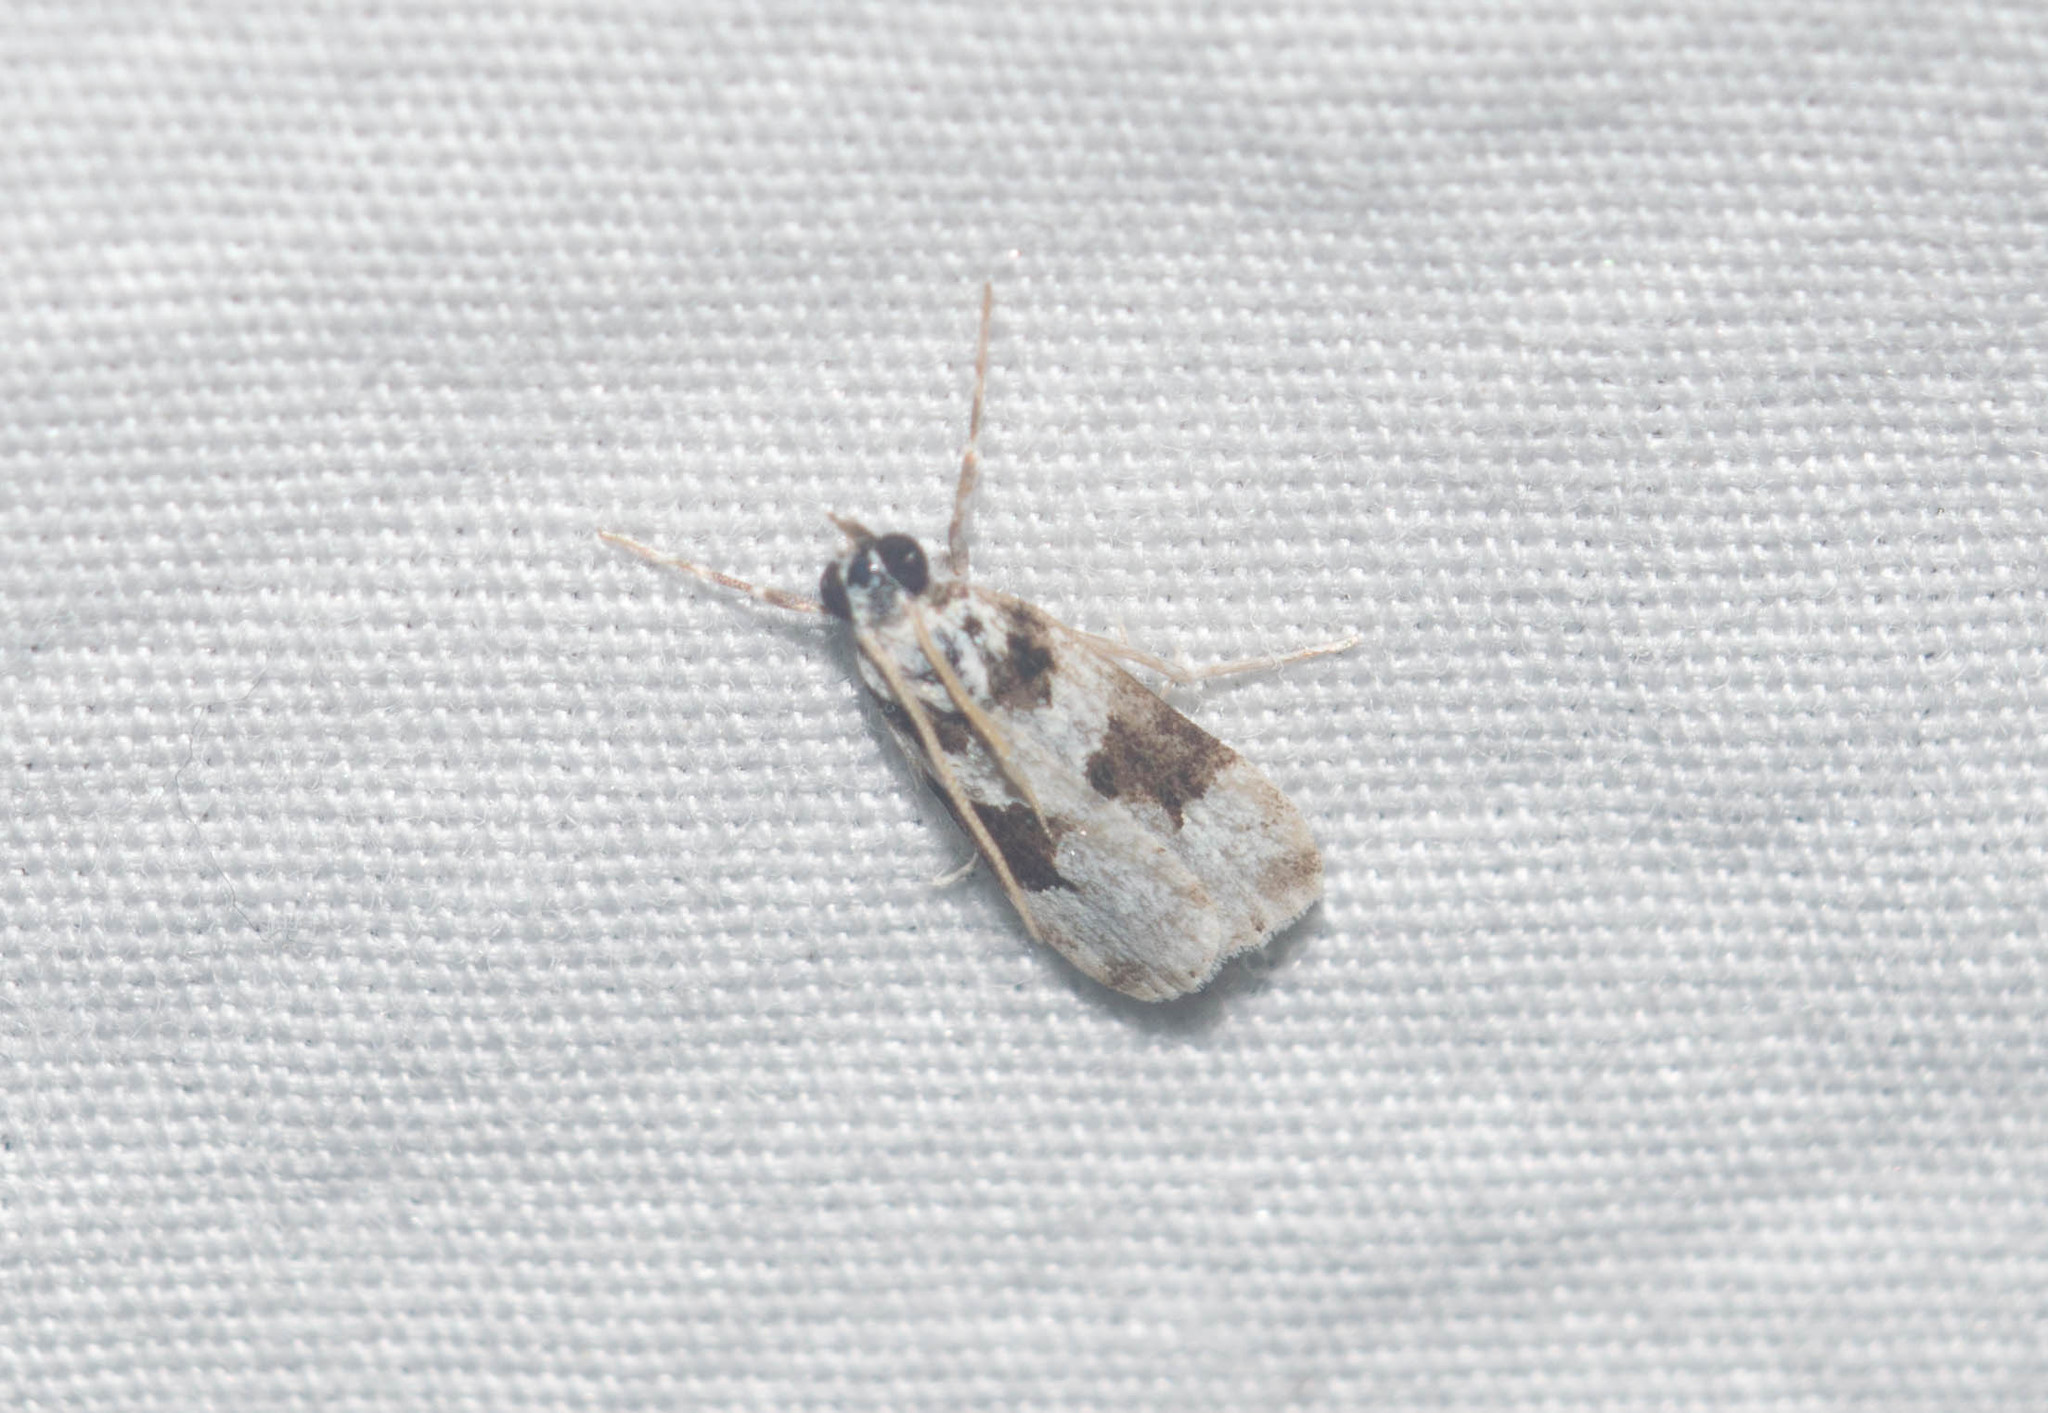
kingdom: Animalia
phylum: Arthropoda
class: Insecta
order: Lepidoptera
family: Crambidae
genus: Eudonia
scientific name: Eudonia
